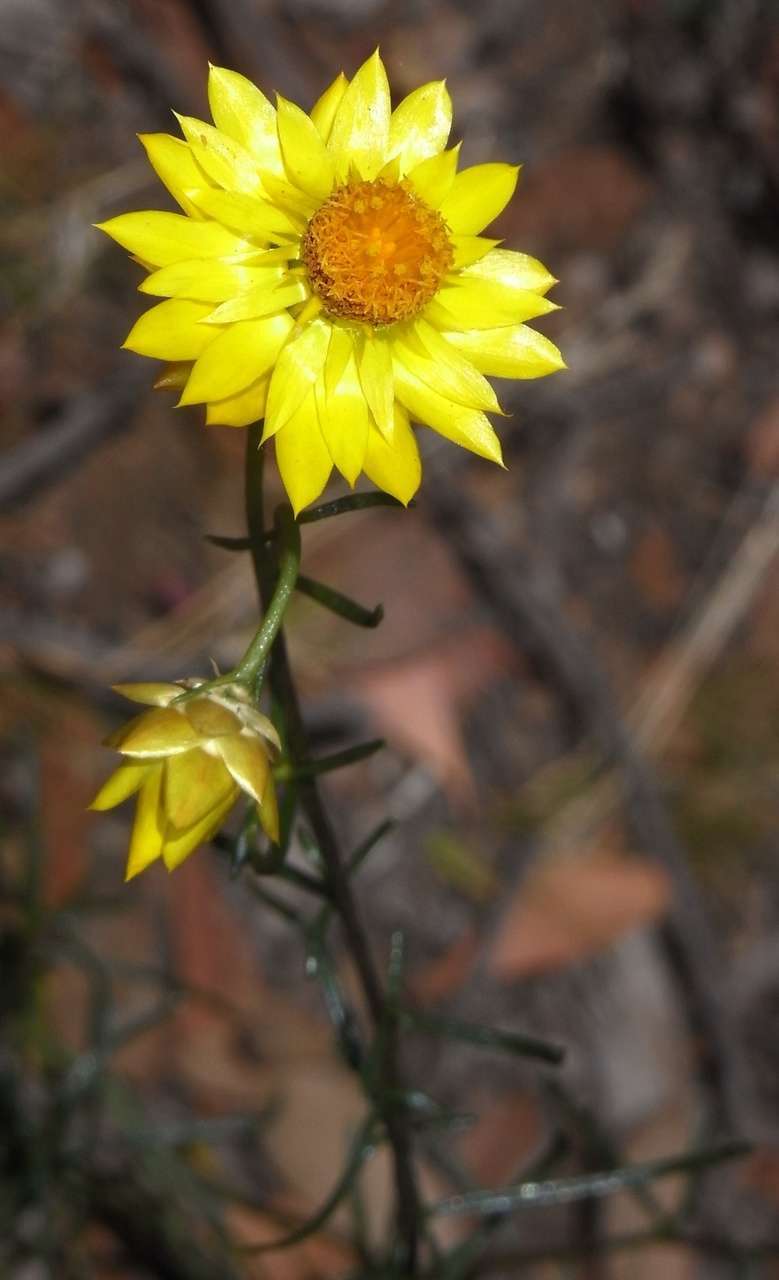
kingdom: Plantae
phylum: Tracheophyta
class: Magnoliopsida
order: Asterales
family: Asteraceae
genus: Xerochrysum
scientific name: Xerochrysum viscosum
